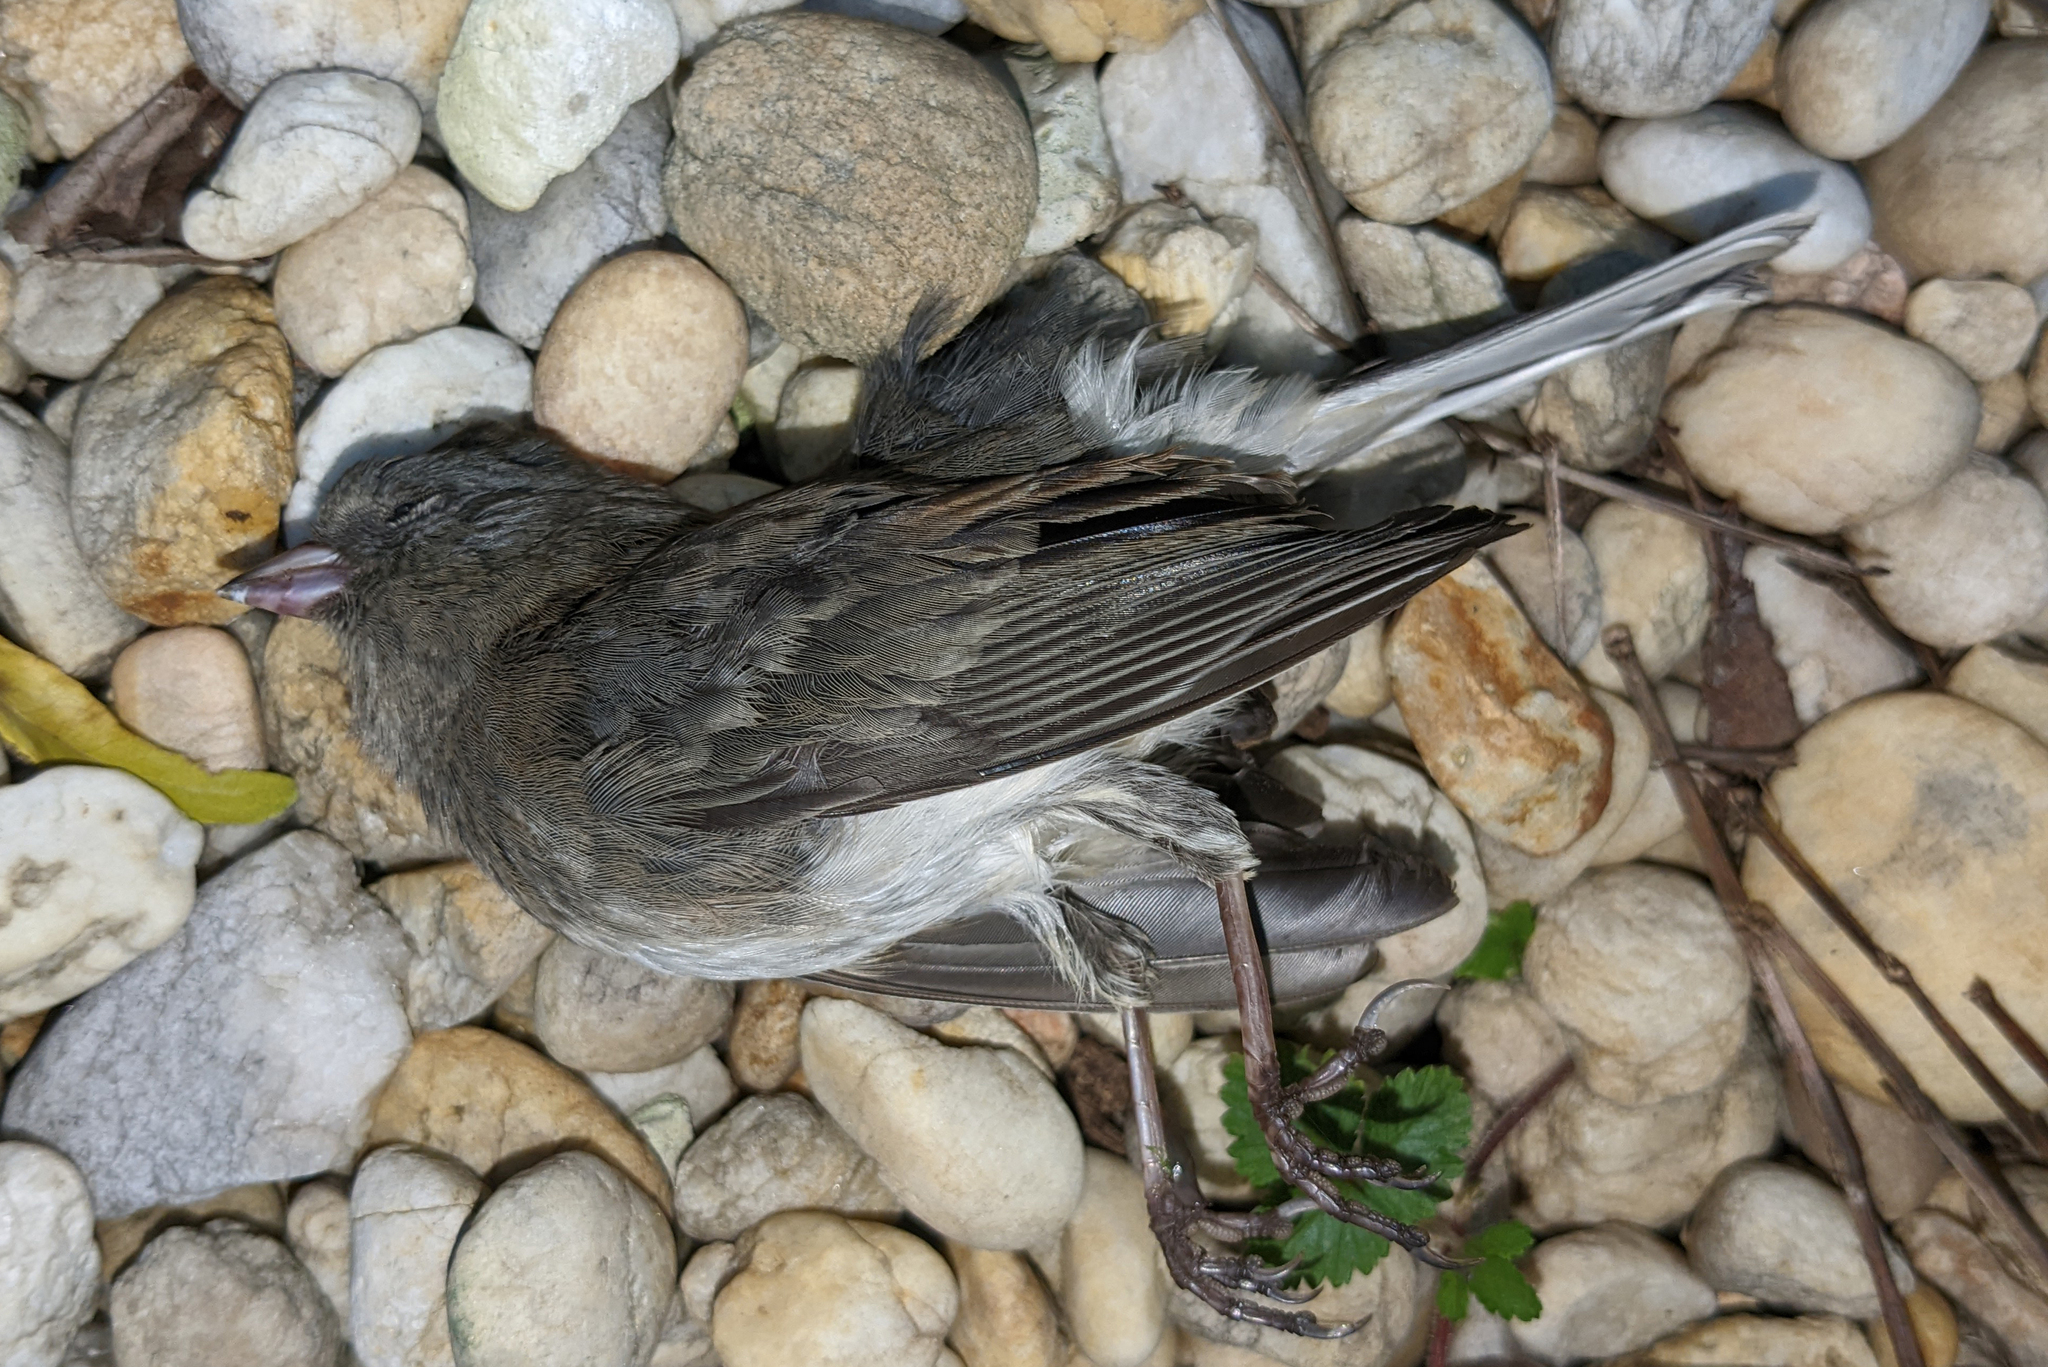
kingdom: Animalia
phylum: Chordata
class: Aves
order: Passeriformes
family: Passerellidae
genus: Junco
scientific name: Junco hyemalis
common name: Dark-eyed junco
